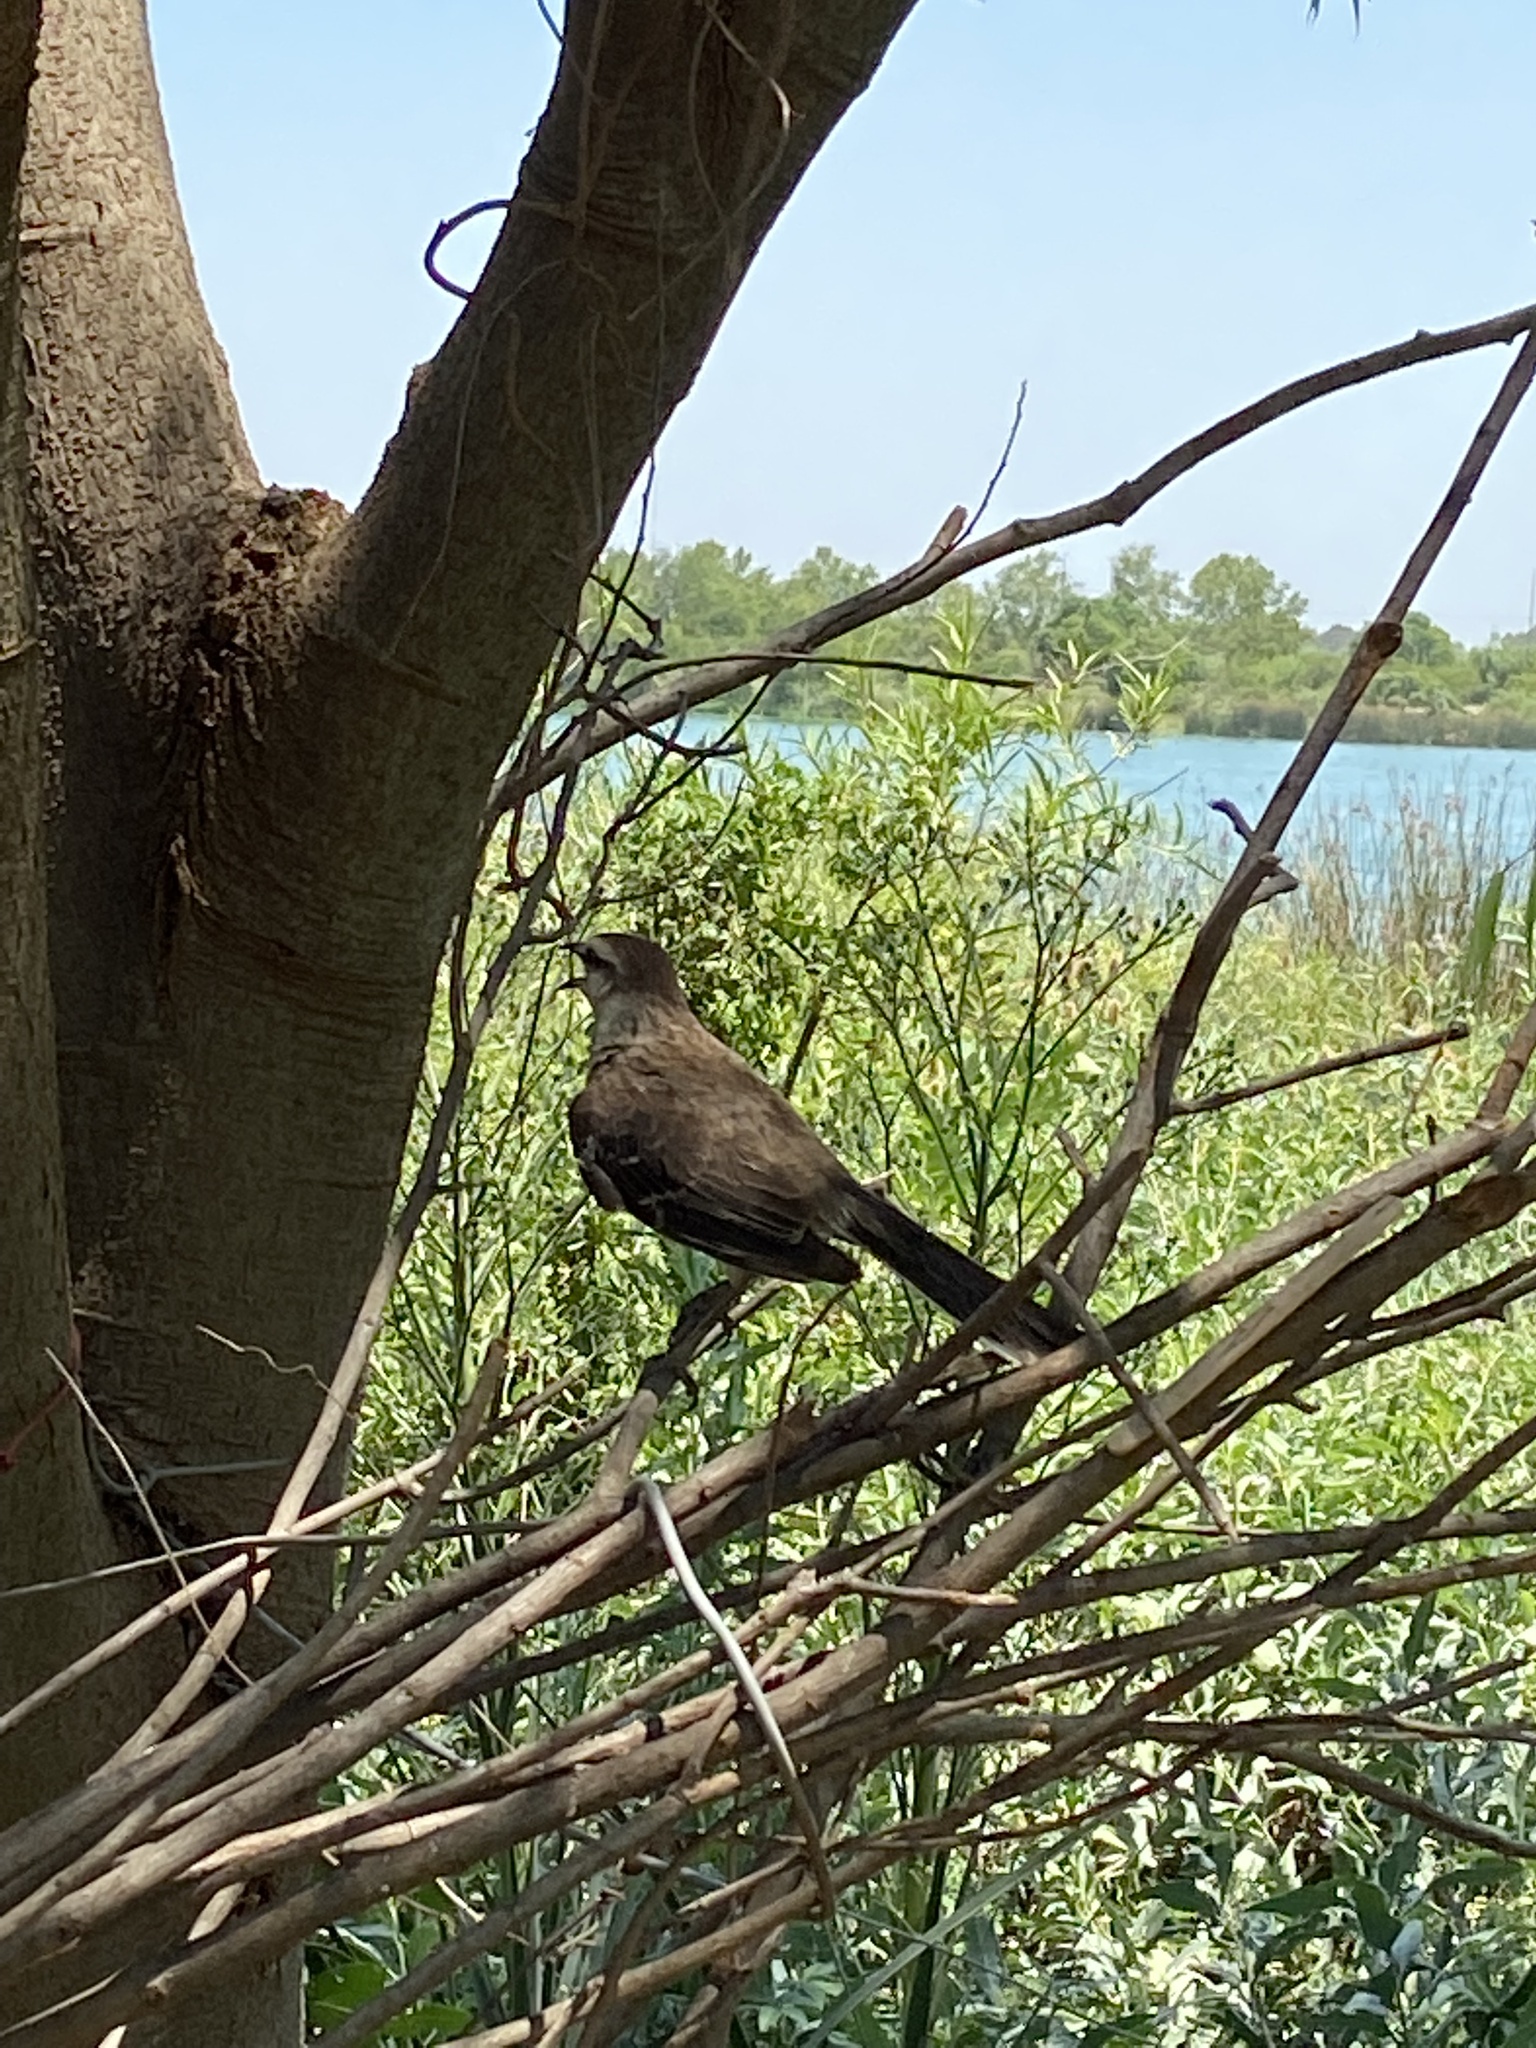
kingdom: Animalia
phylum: Chordata
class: Aves
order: Passeriformes
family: Mimidae
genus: Mimus
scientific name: Mimus saturninus
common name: Chalk-browed mockingbird
